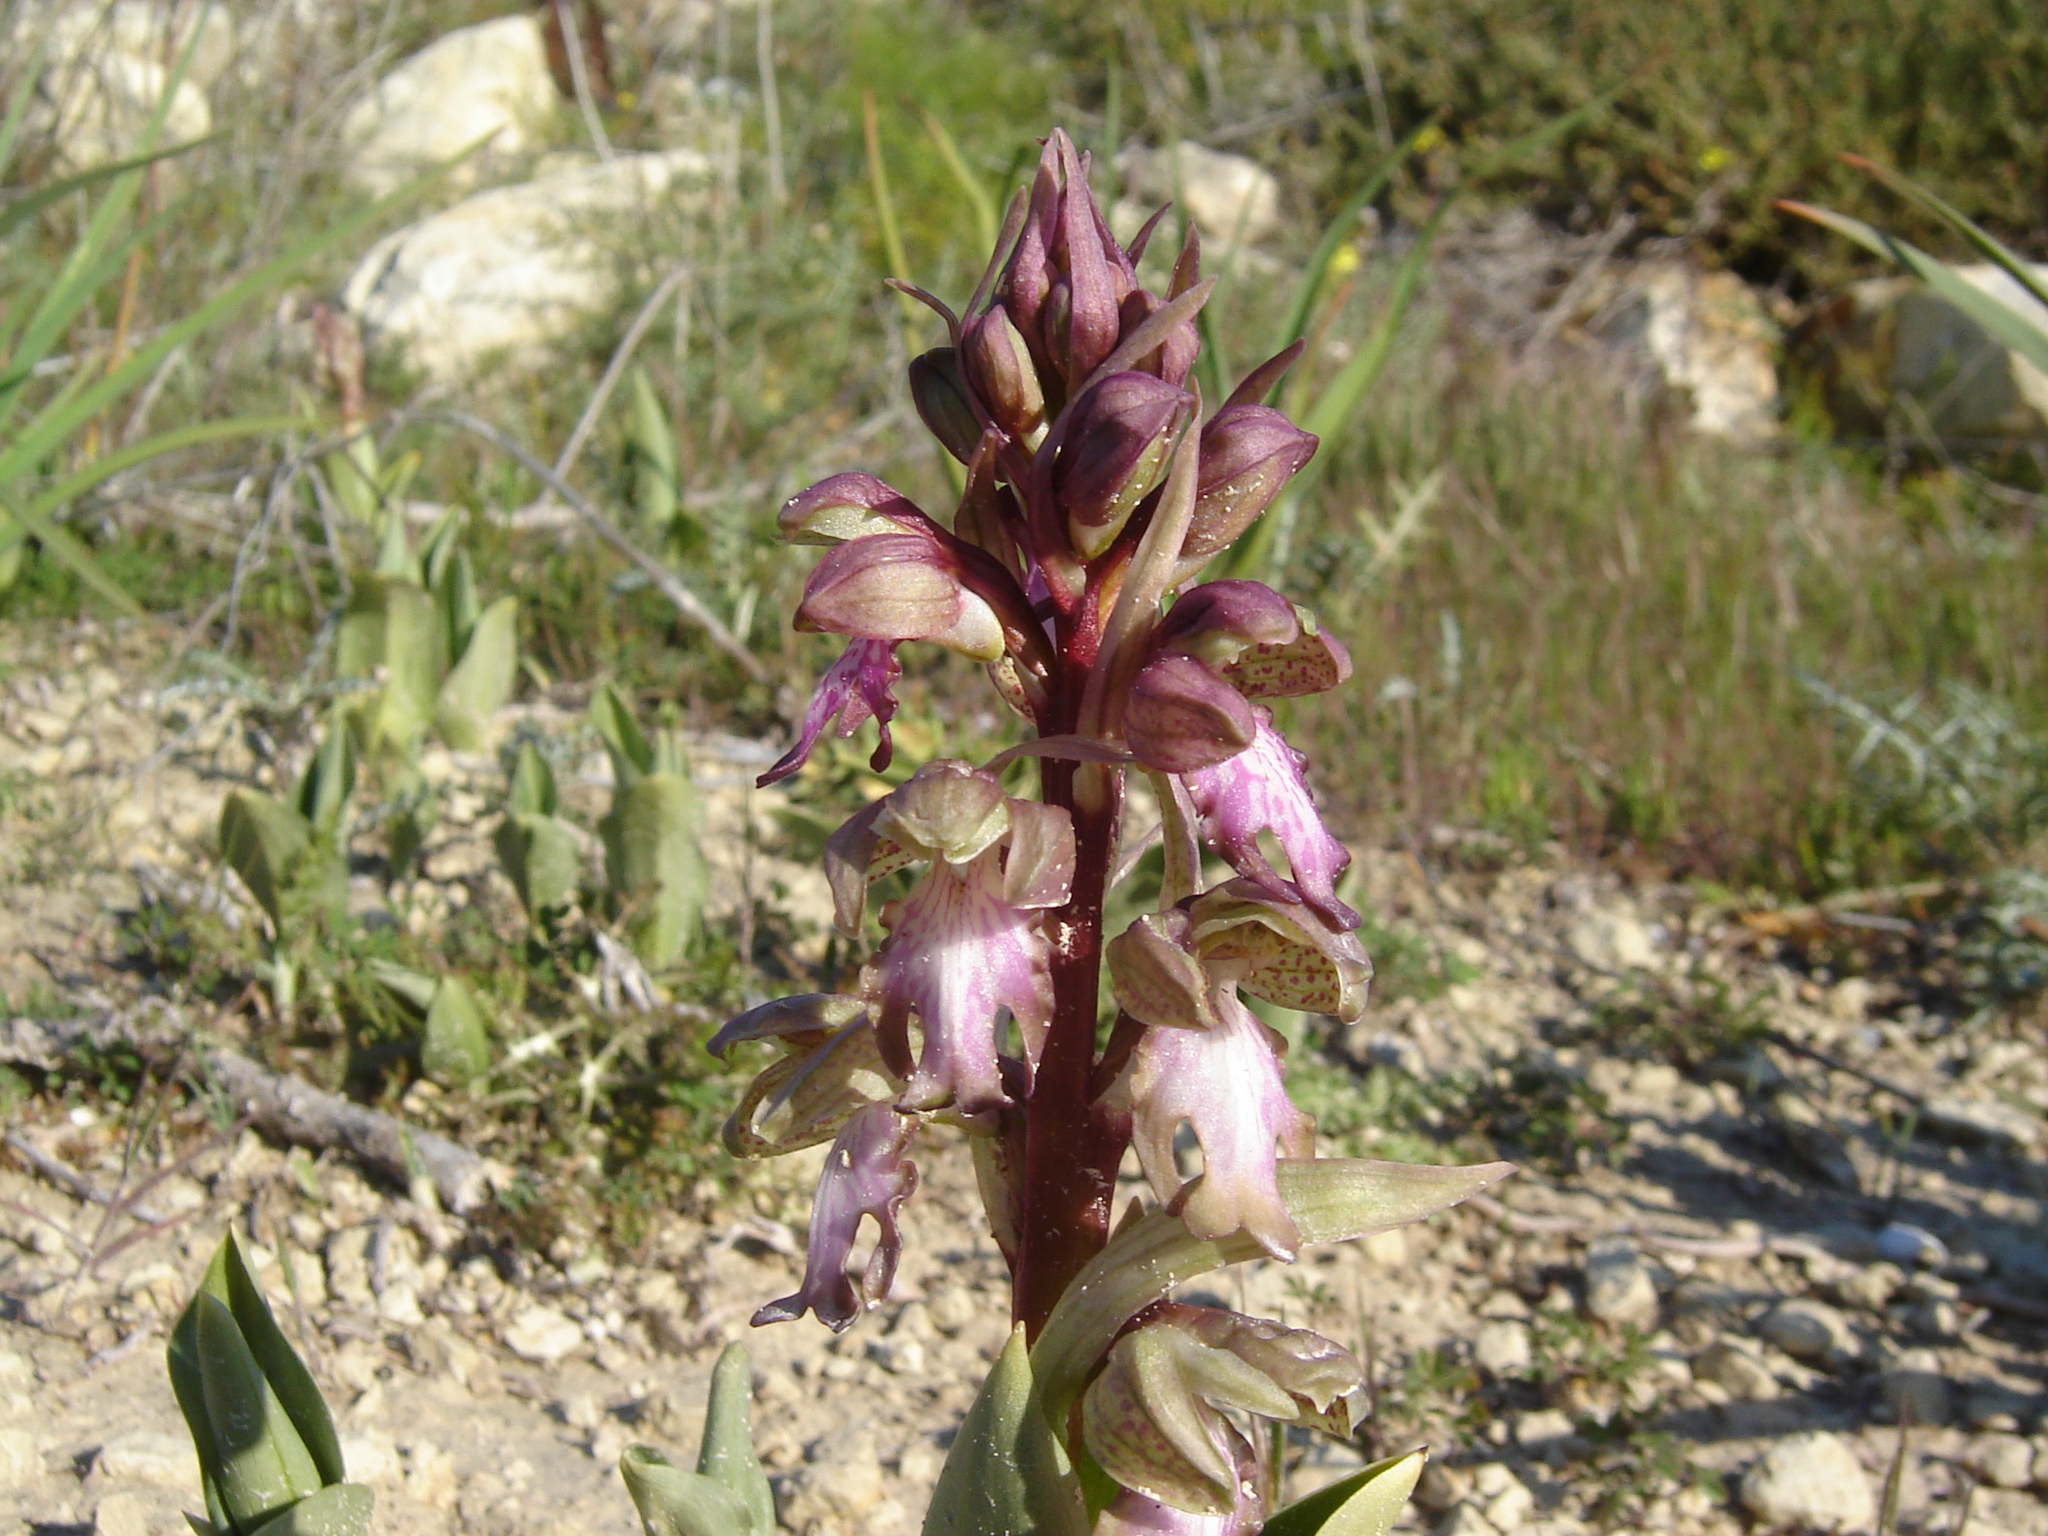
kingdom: Plantae
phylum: Tracheophyta
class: Liliopsida
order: Asparagales
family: Orchidaceae
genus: Himantoglossum
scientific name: Himantoglossum robertianum
